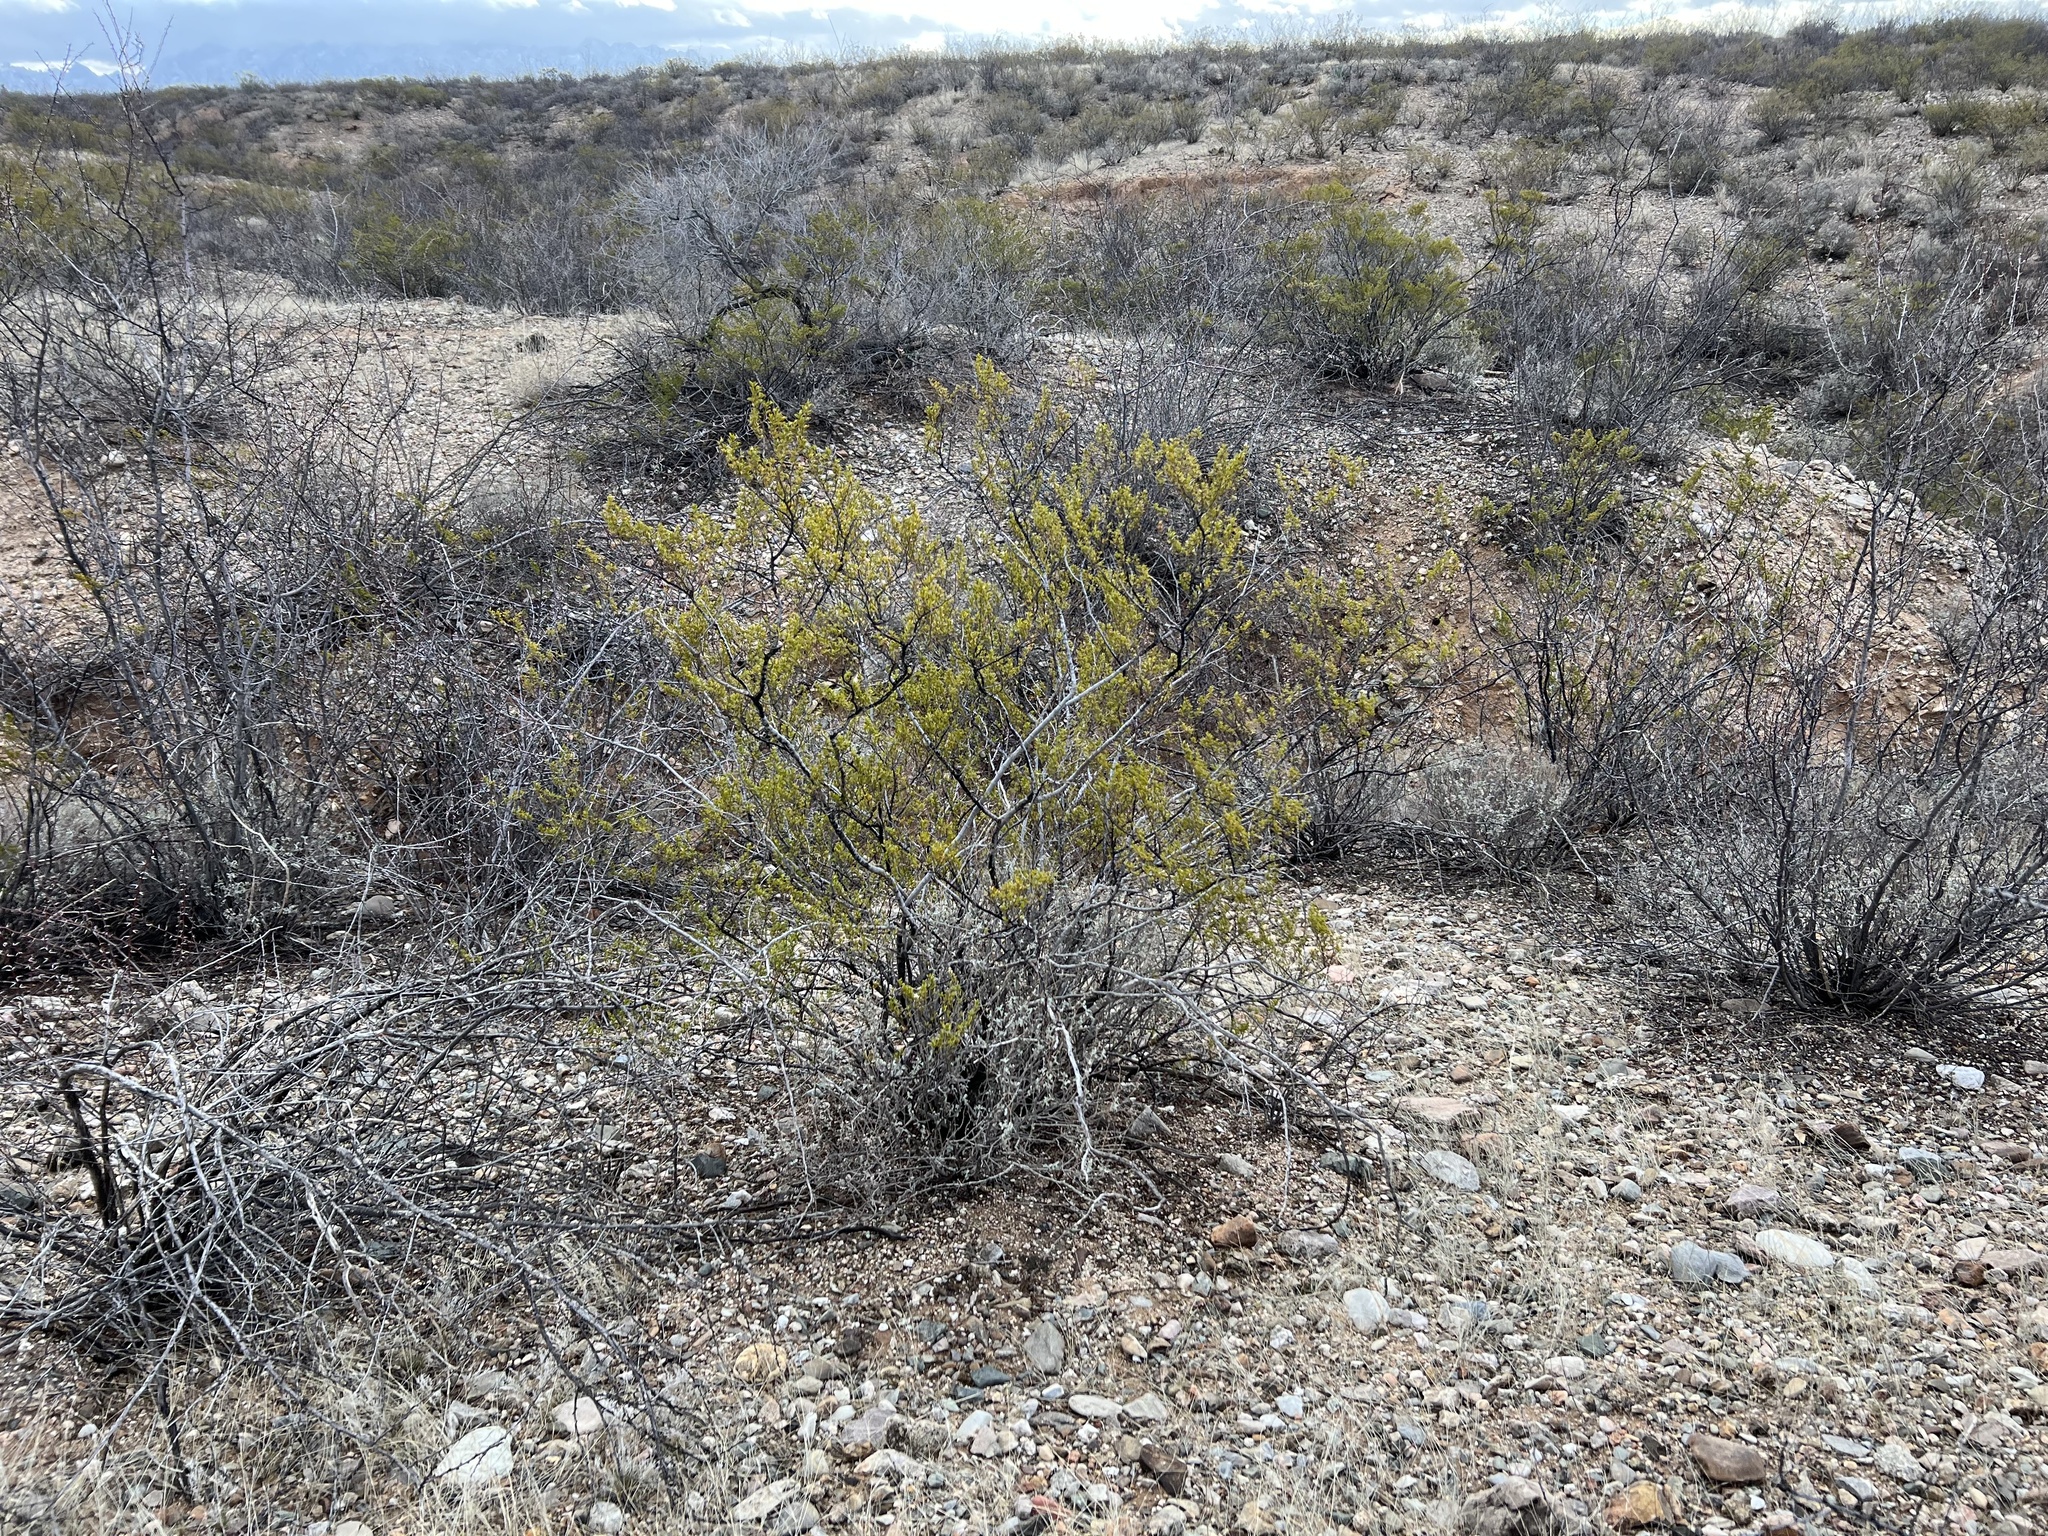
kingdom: Plantae
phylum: Tracheophyta
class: Magnoliopsida
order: Zygophyllales
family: Zygophyllaceae
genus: Larrea
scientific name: Larrea tridentata
